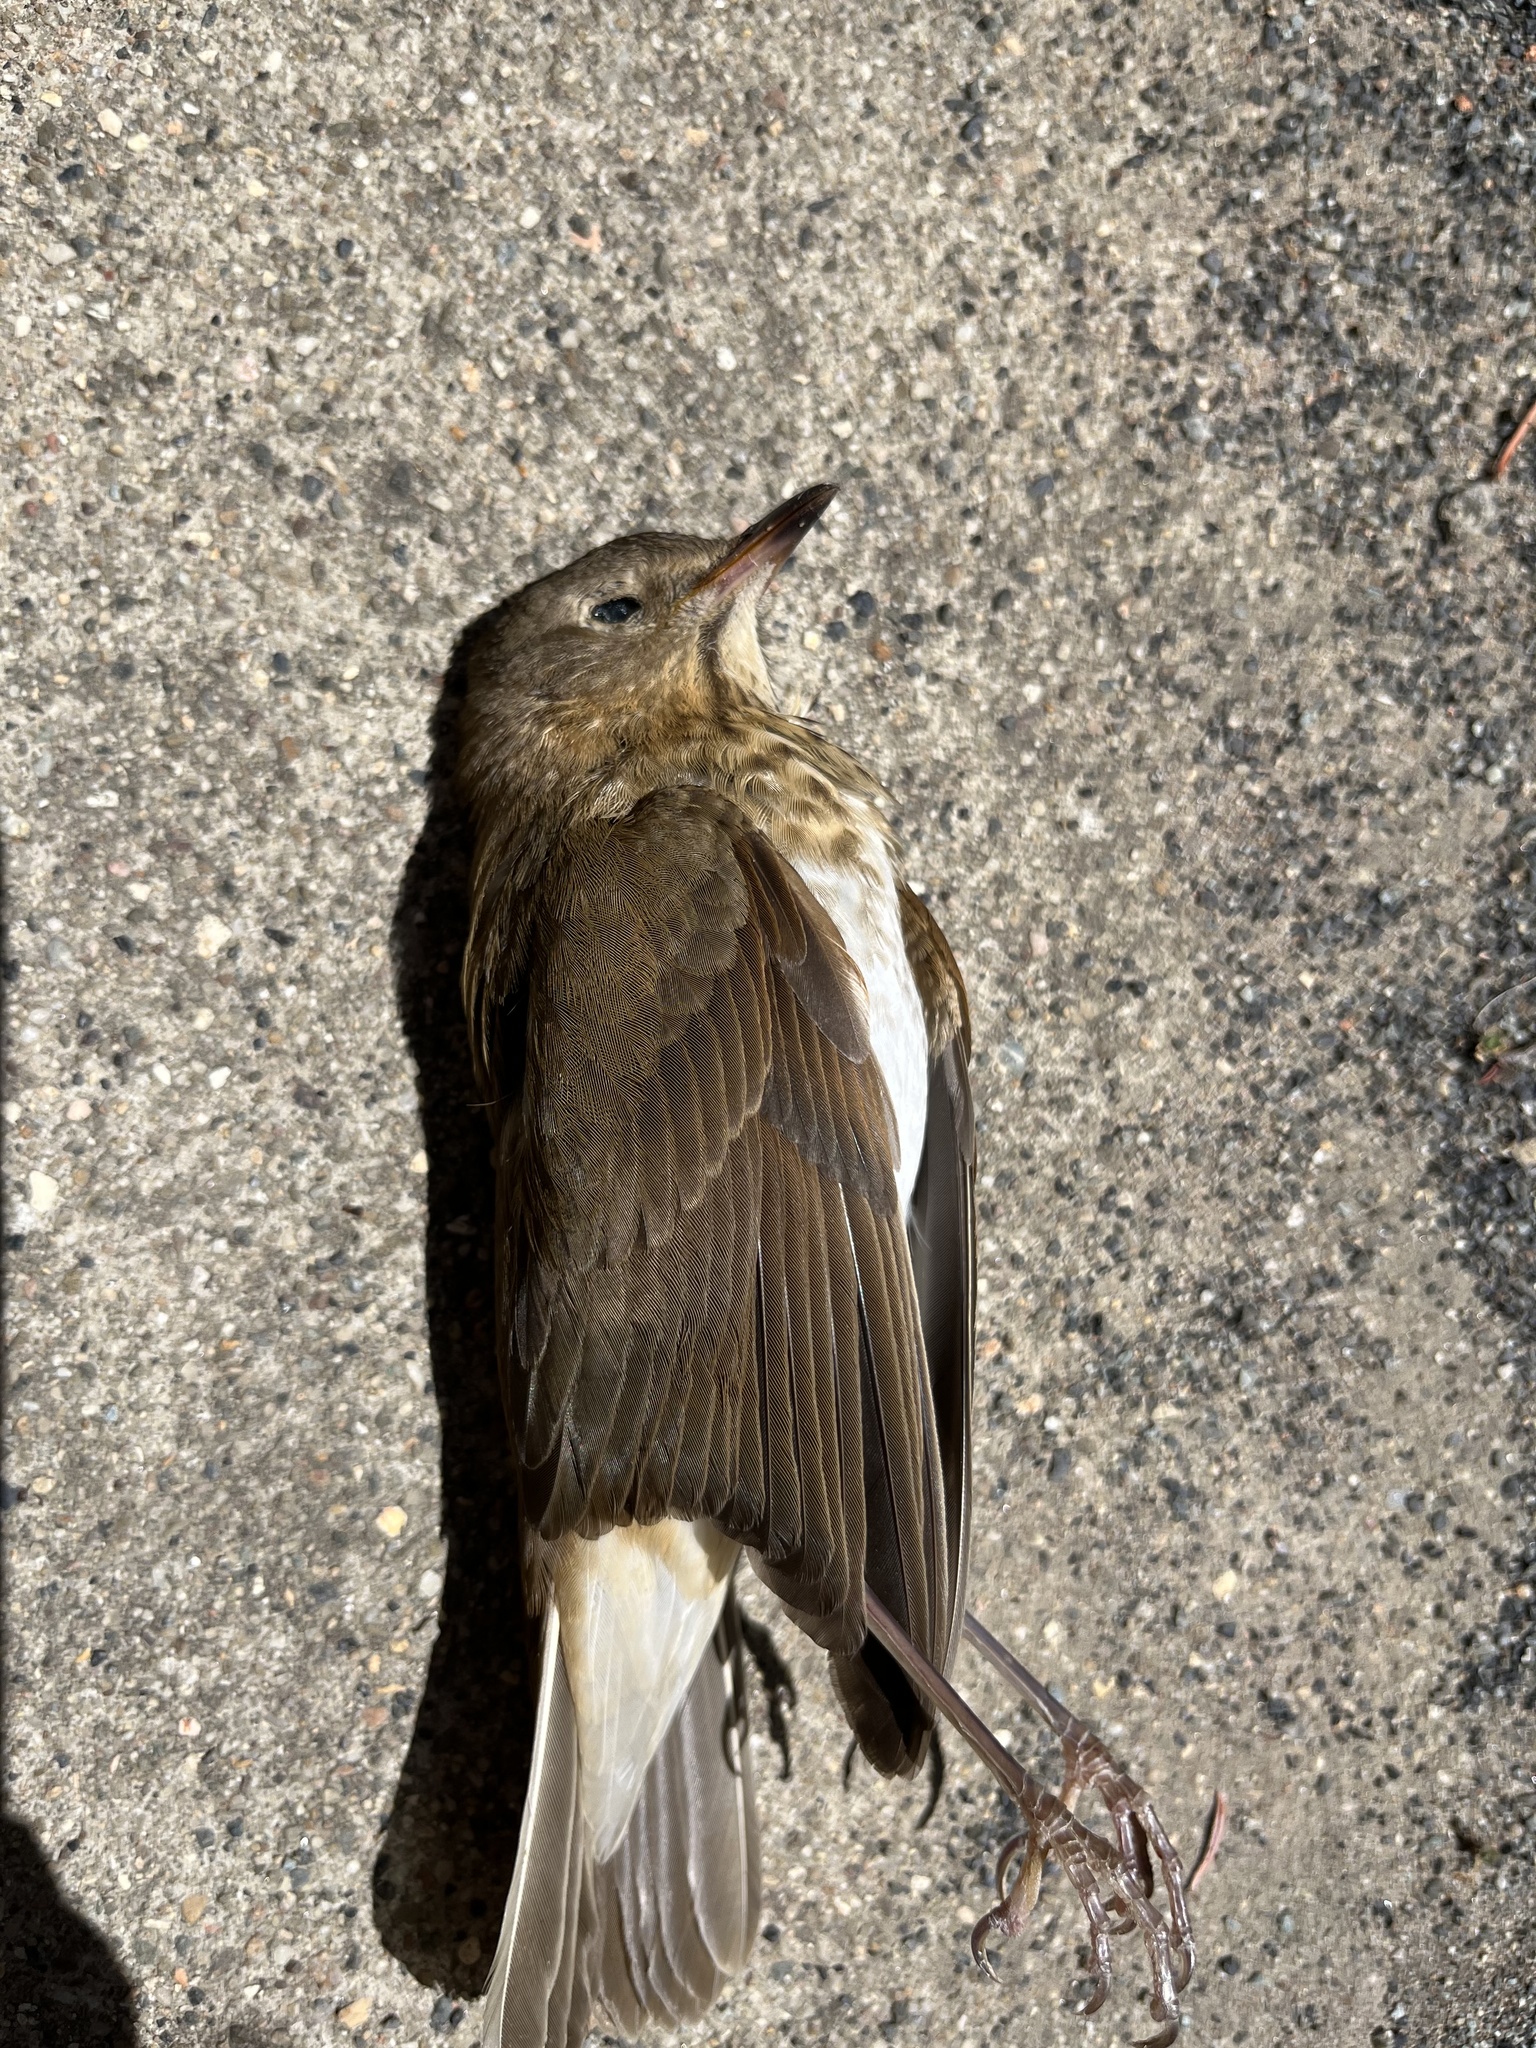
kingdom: Animalia
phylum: Chordata
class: Aves
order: Passeriformes
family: Turdidae
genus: Catharus
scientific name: Catharus ustulatus
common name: Swainson's thrush
